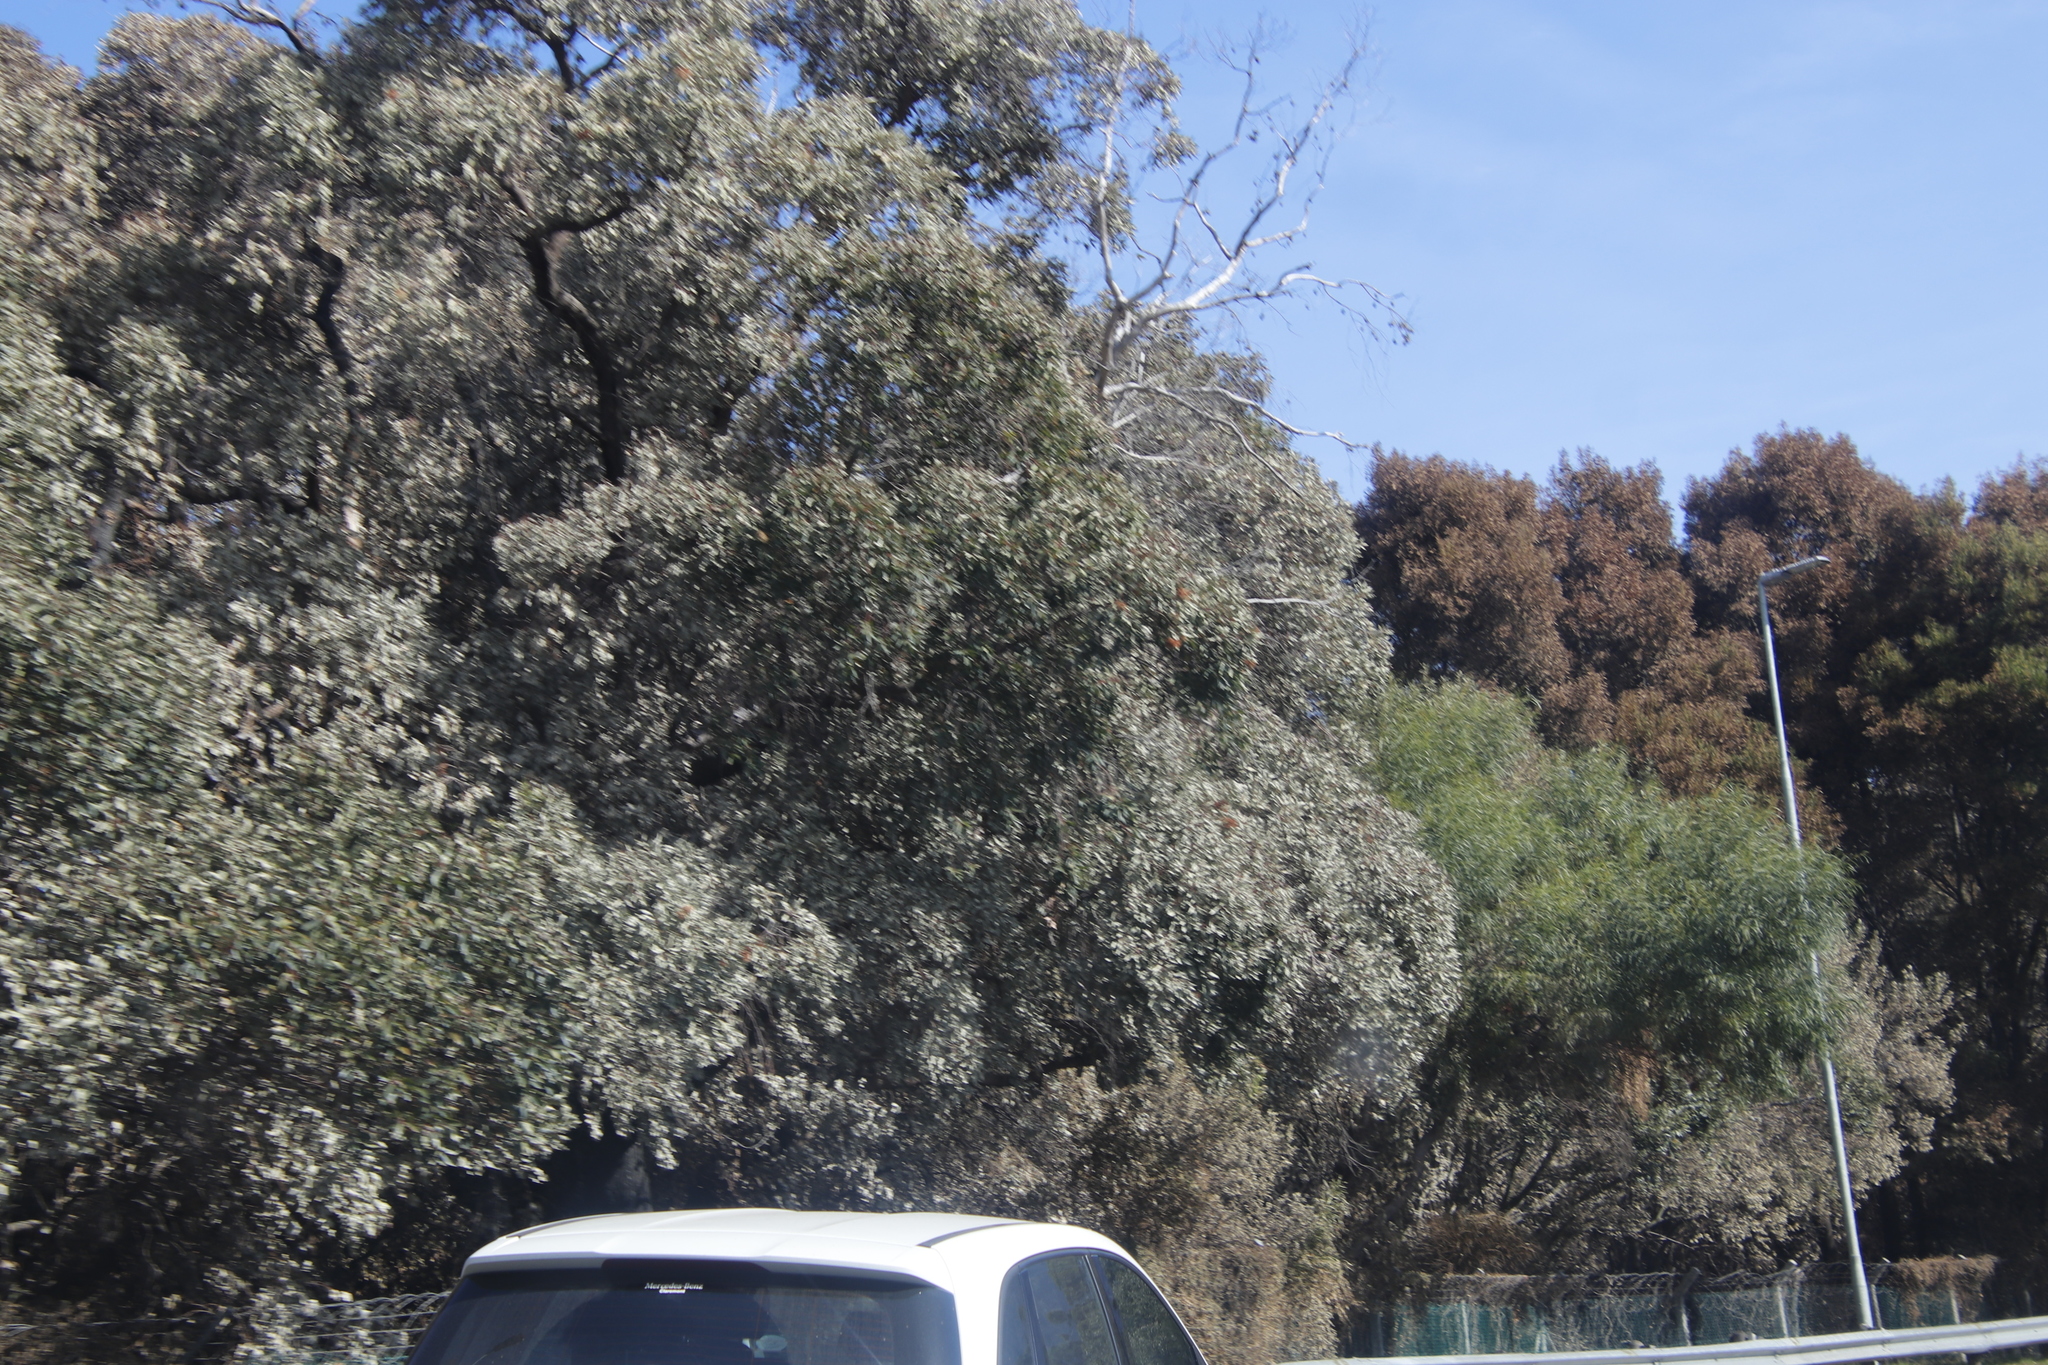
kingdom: Plantae
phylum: Tracheophyta
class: Magnoliopsida
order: Fagales
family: Fagaceae
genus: Quercus
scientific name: Quercus suber
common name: Cork oak
